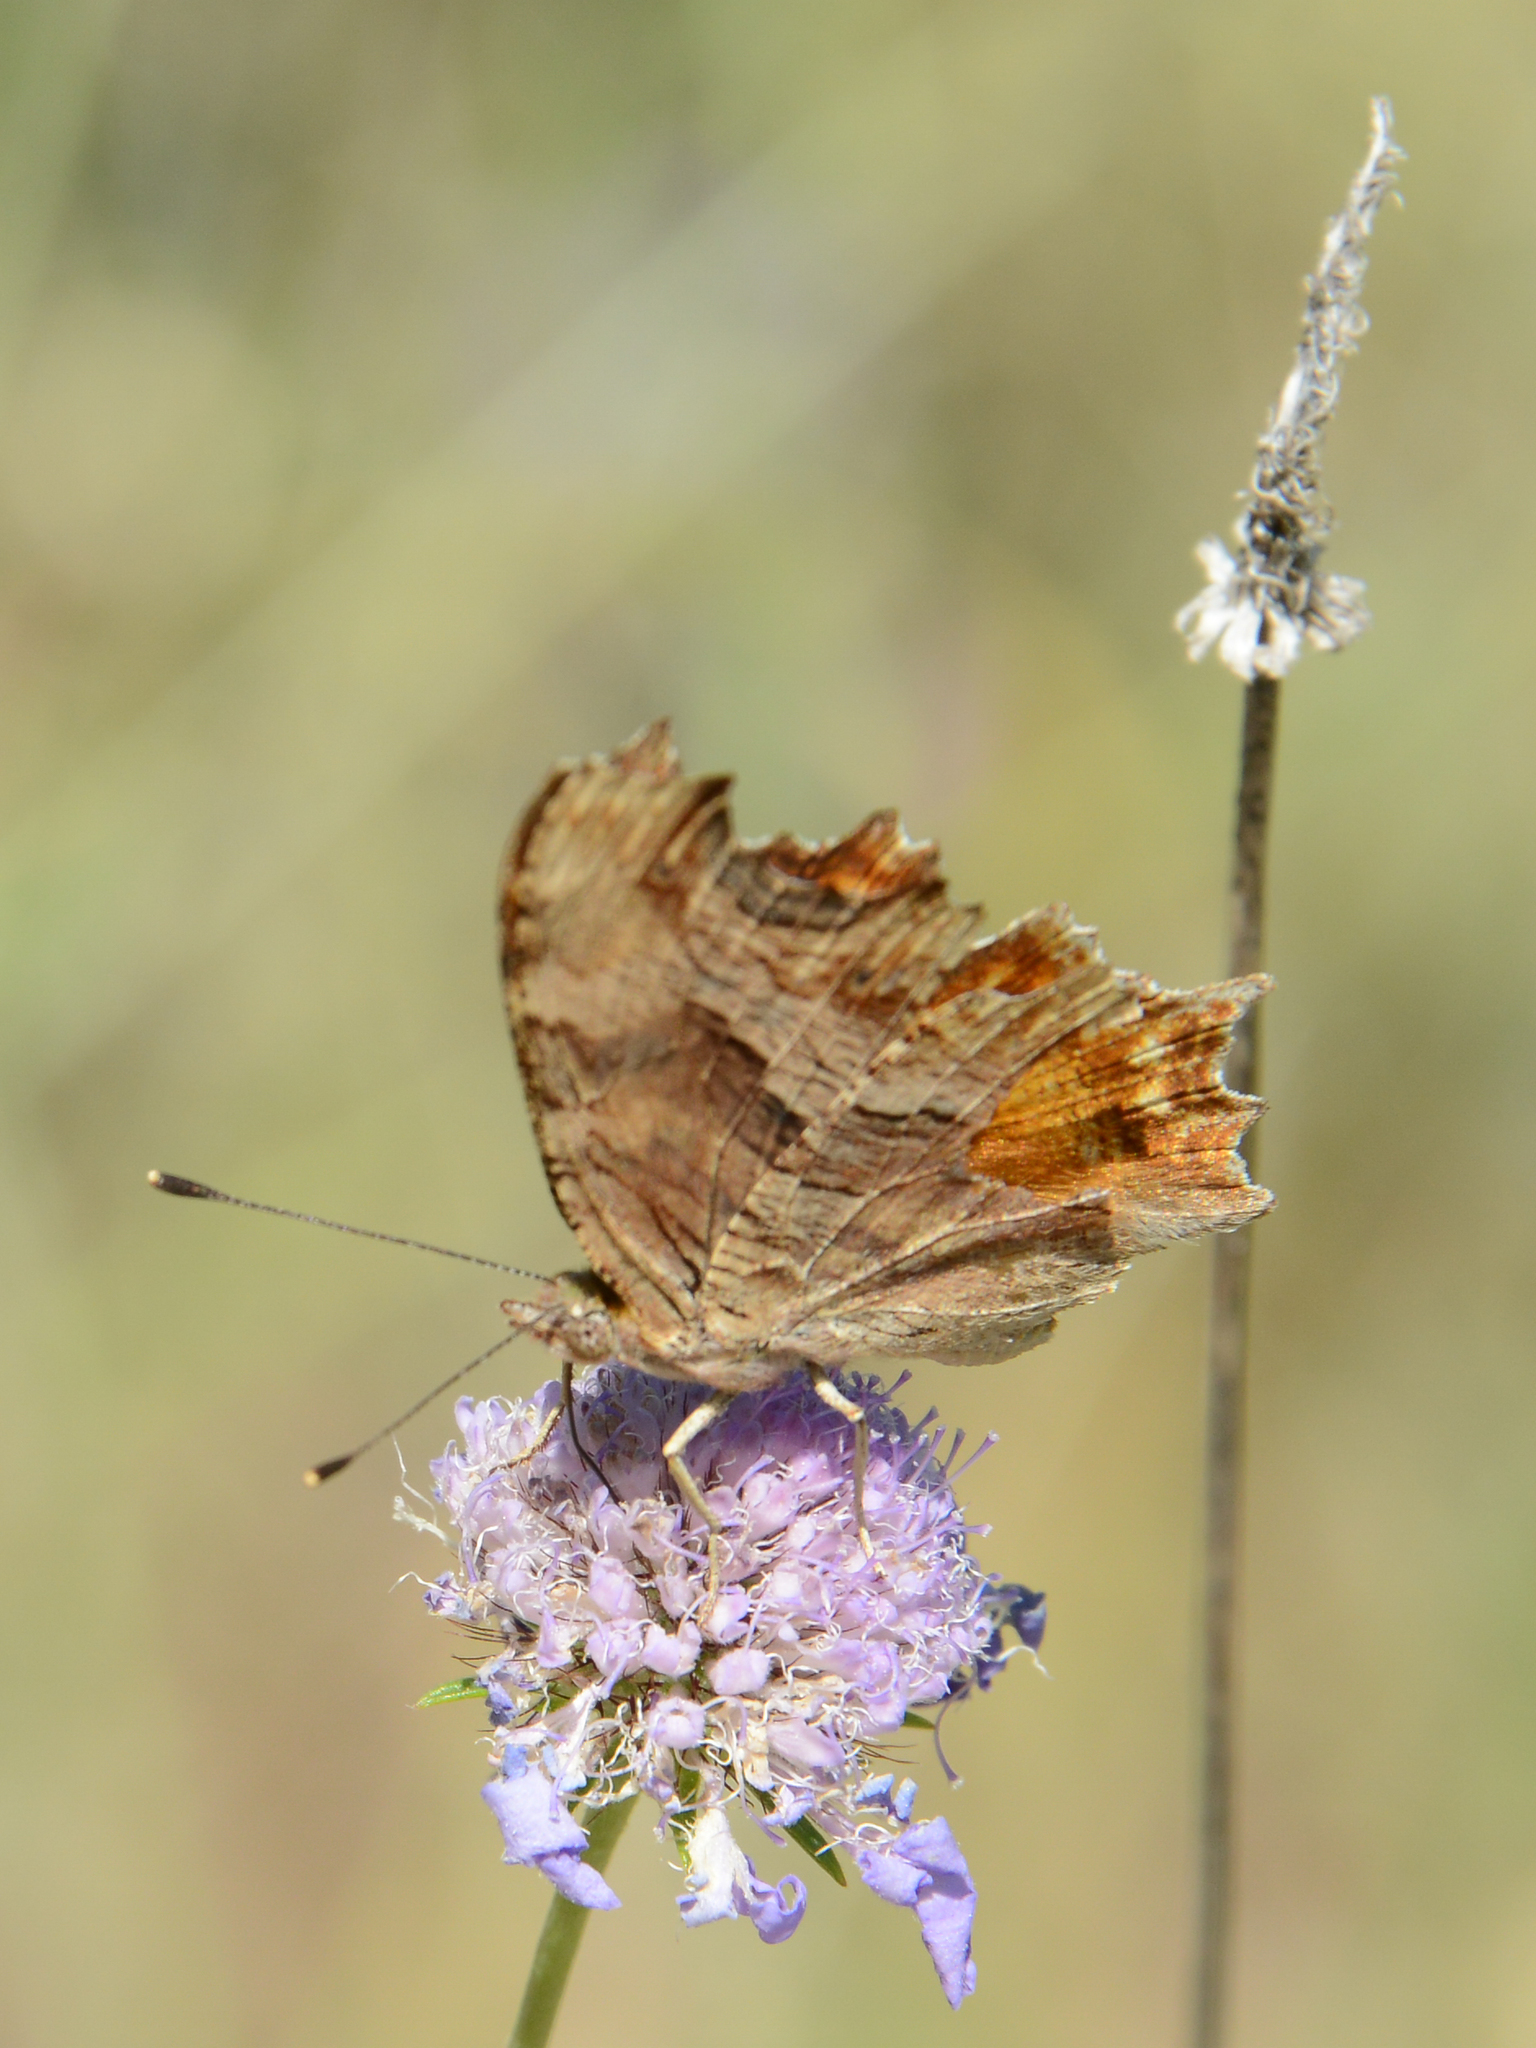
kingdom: Animalia
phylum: Arthropoda
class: Insecta
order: Lepidoptera
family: Nymphalidae
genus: Polygonia
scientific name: Polygonia egea
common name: Southern comma
